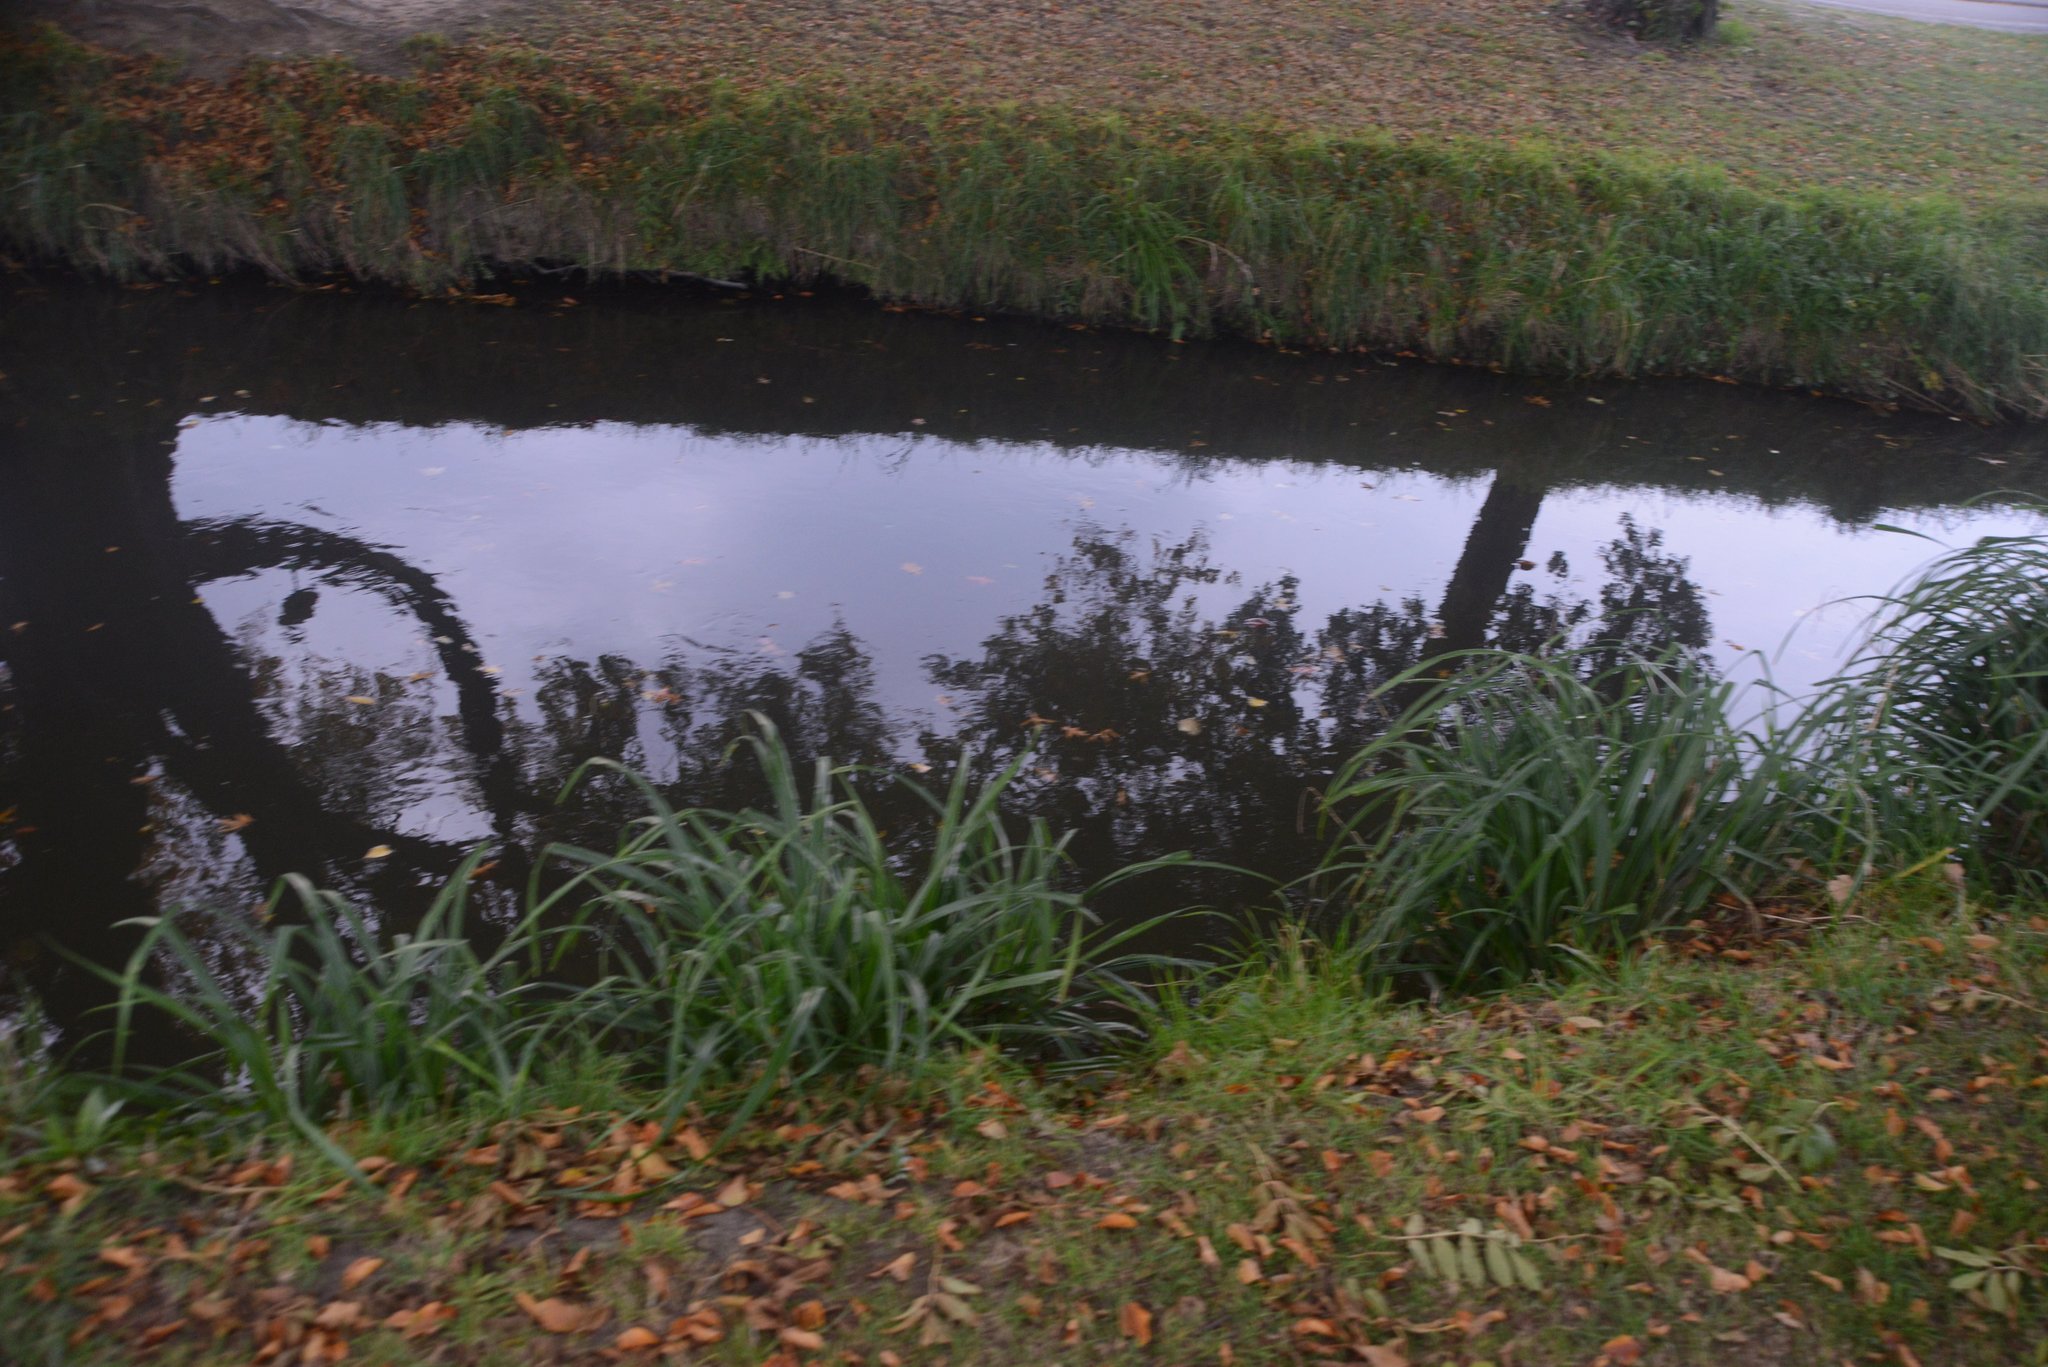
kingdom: Plantae
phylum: Tracheophyta
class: Liliopsida
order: Poales
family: Cyperaceae
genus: Carex
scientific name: Carex pendula
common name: Pendulous sedge
